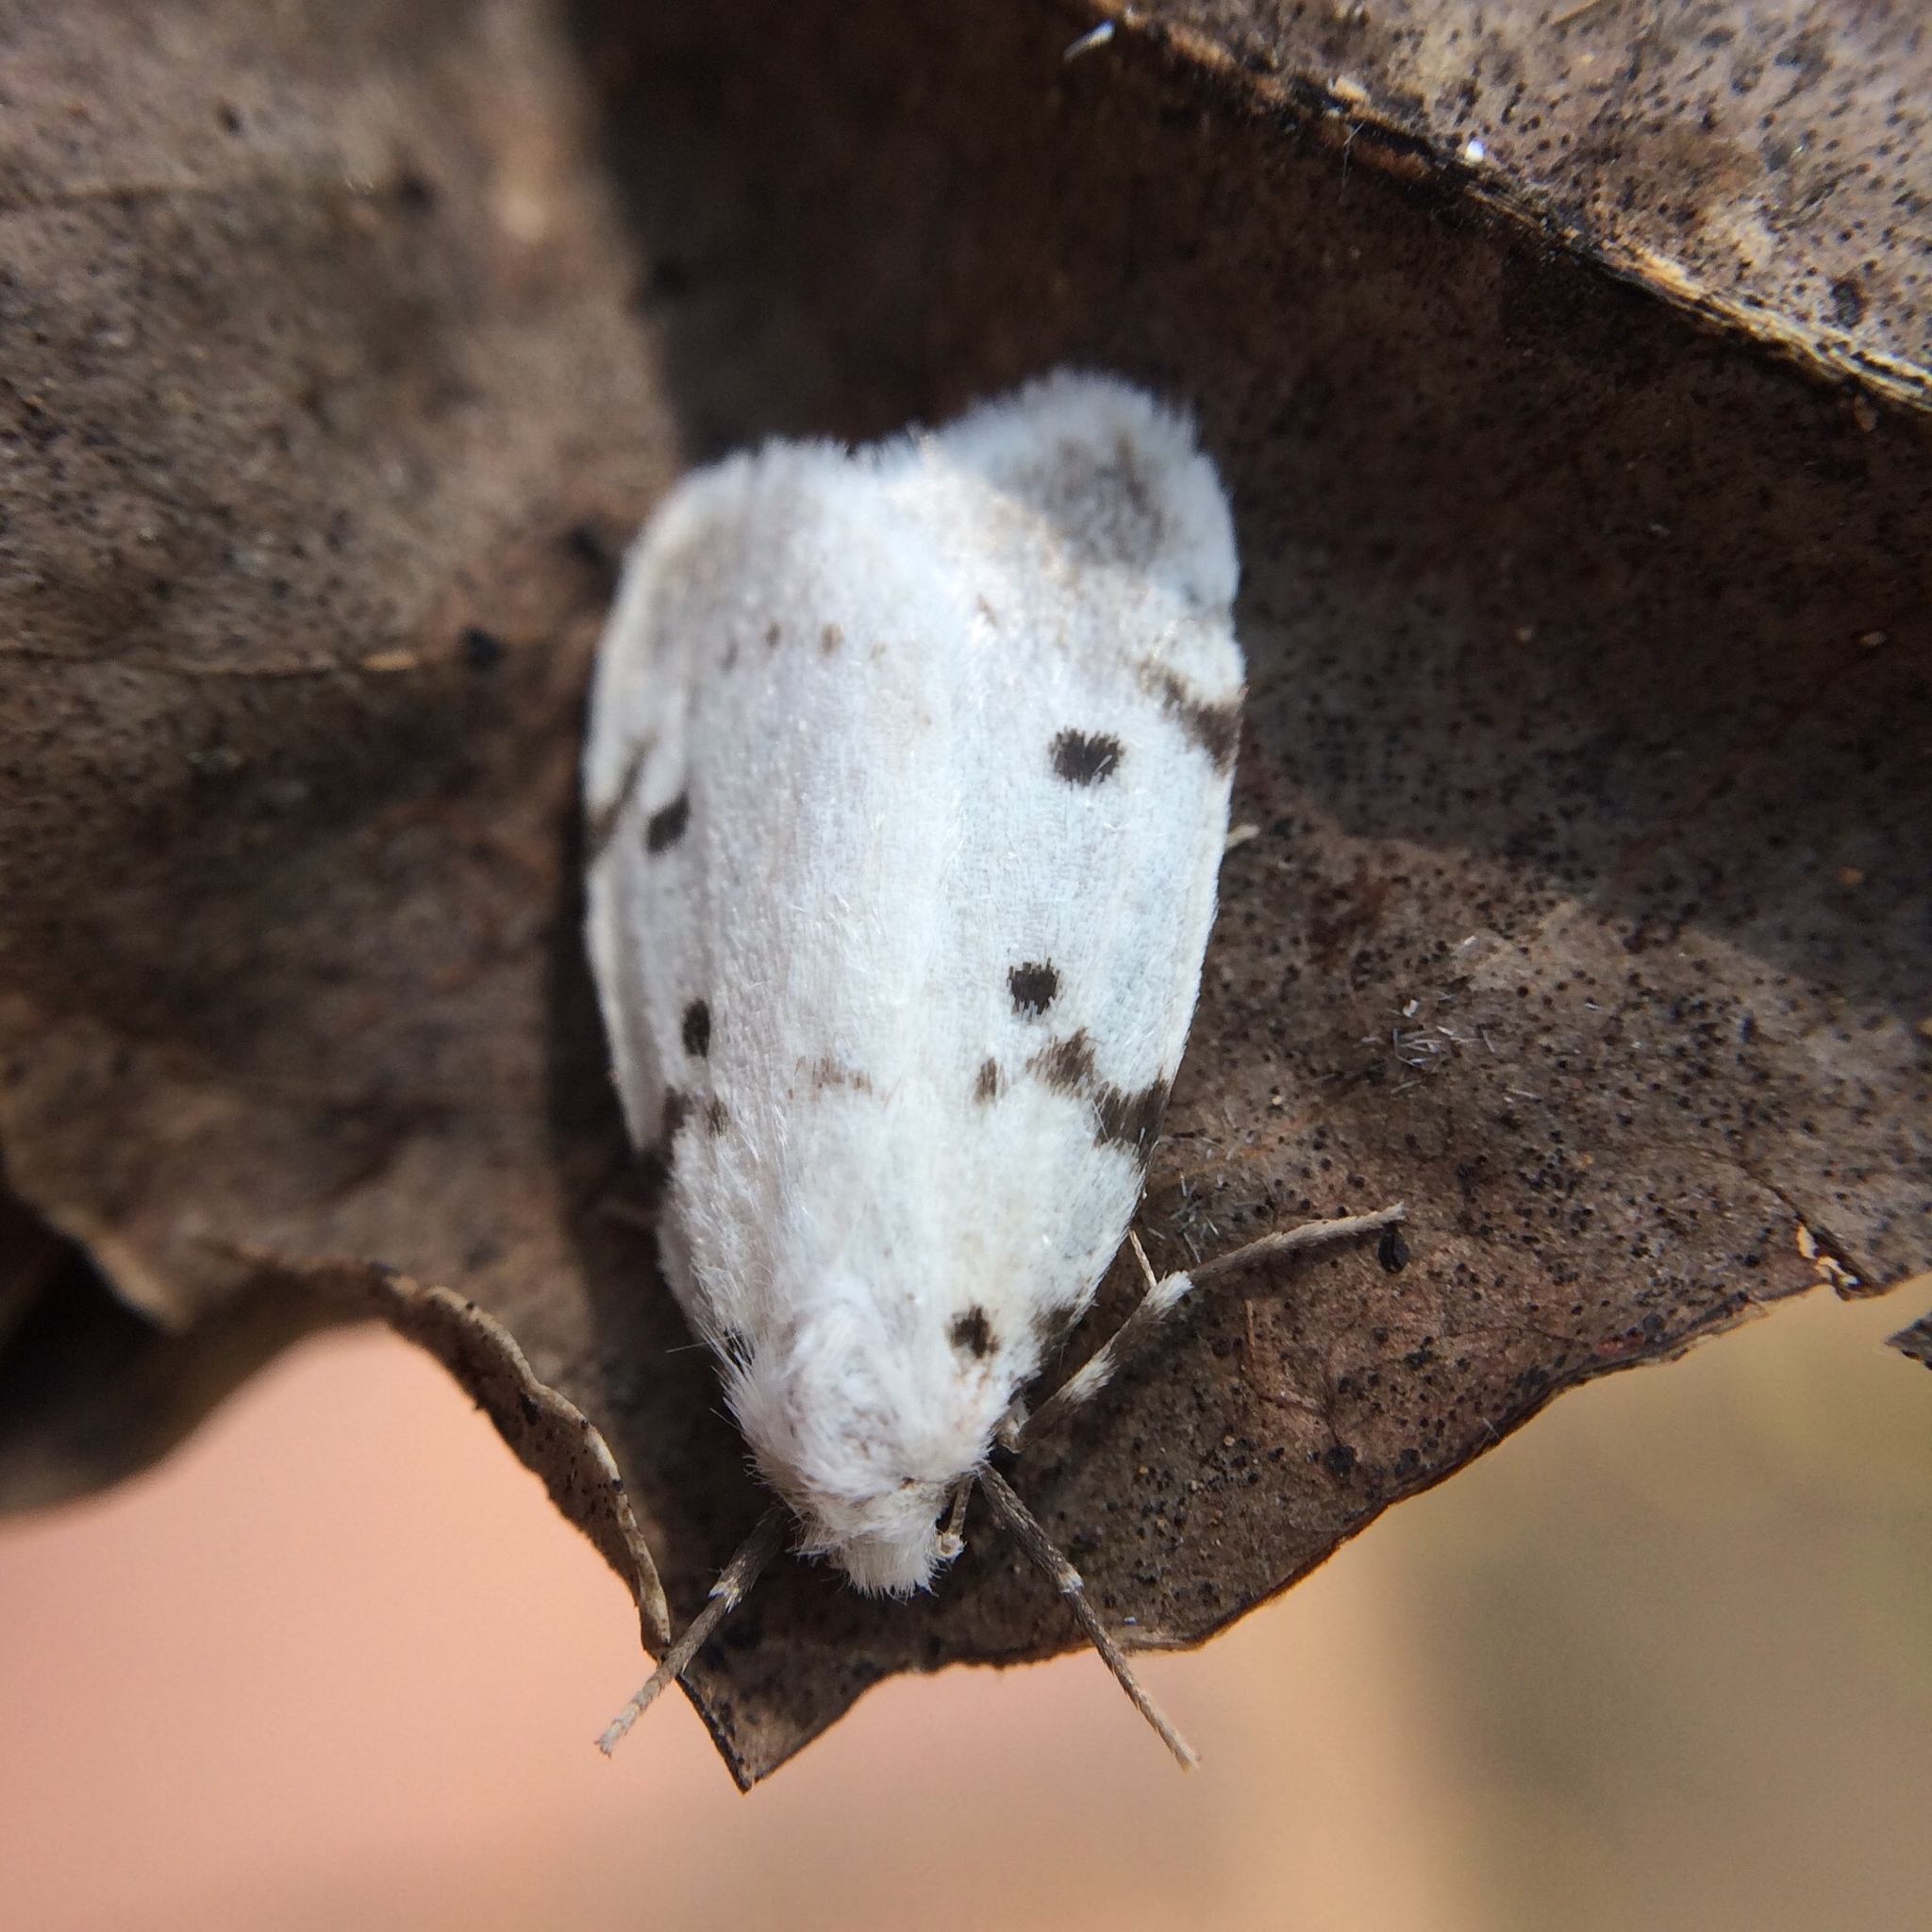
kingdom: Animalia
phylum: Arthropoda
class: Insecta
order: Lepidoptera
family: Erebidae
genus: Cyana
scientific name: Cyana marshalli
